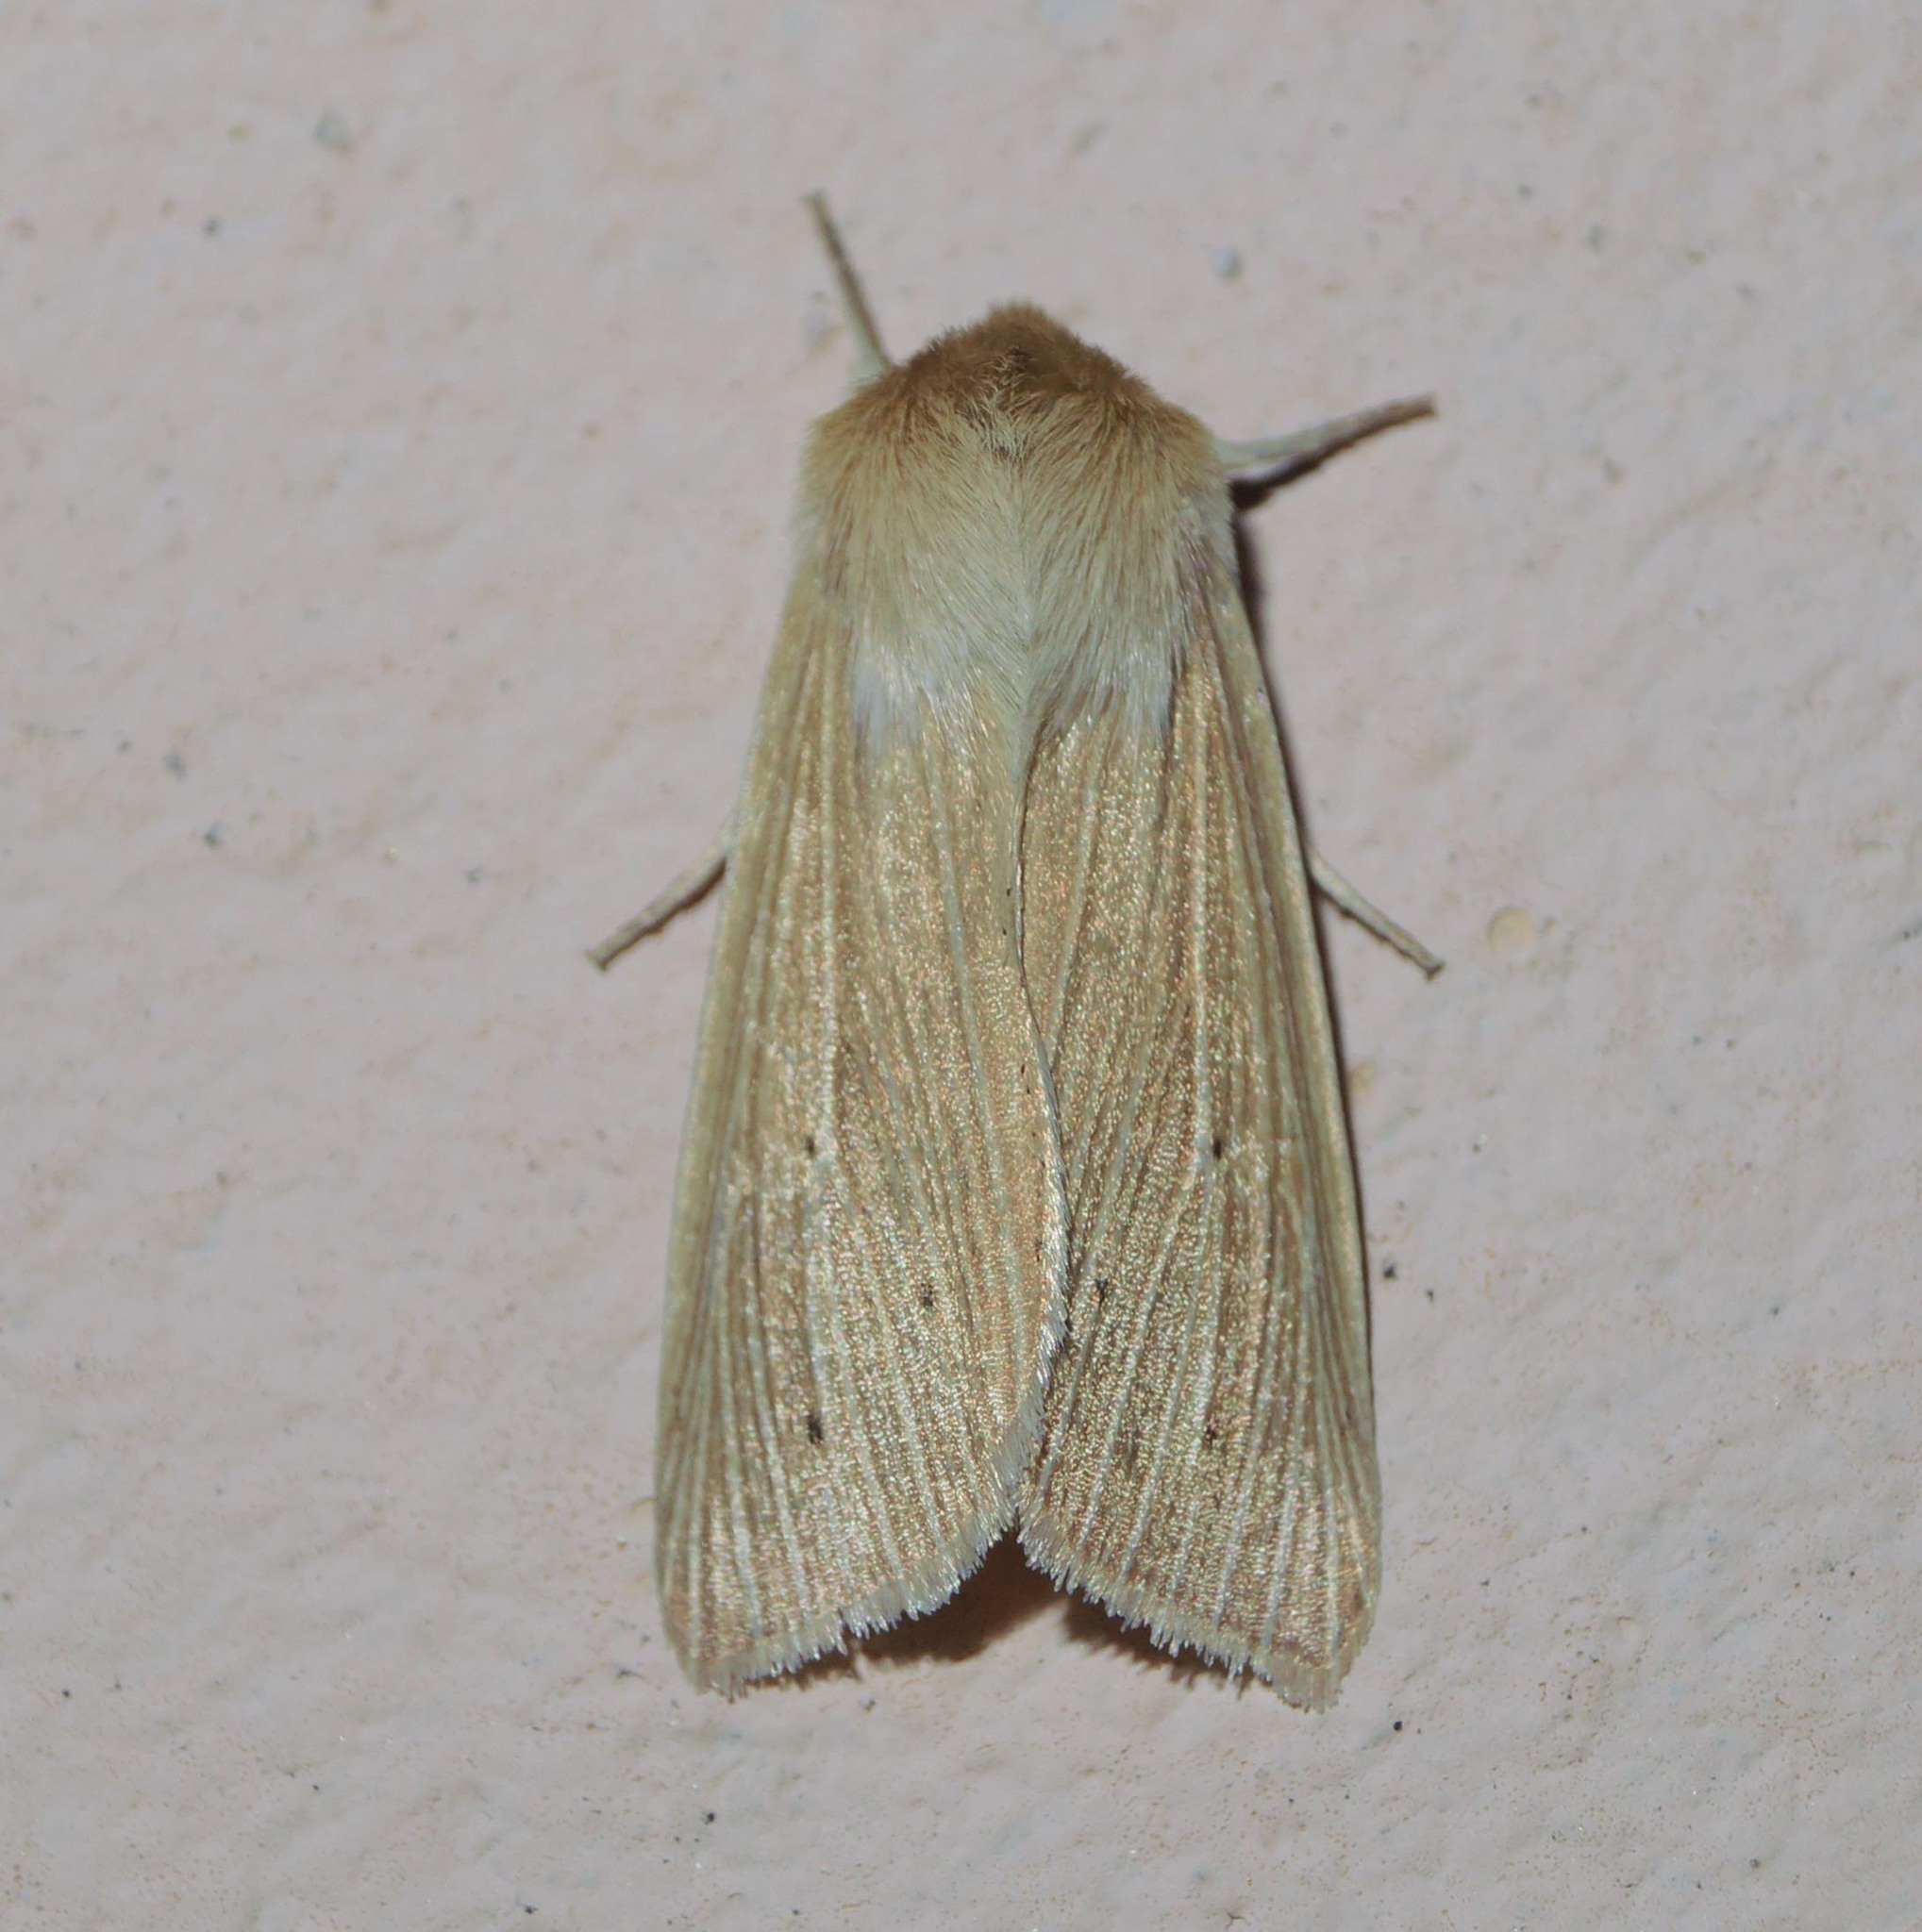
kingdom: Animalia
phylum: Arthropoda
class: Insecta
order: Lepidoptera
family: Noctuidae
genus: Mythimna
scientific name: Mythimna pallens
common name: Common wainscot
